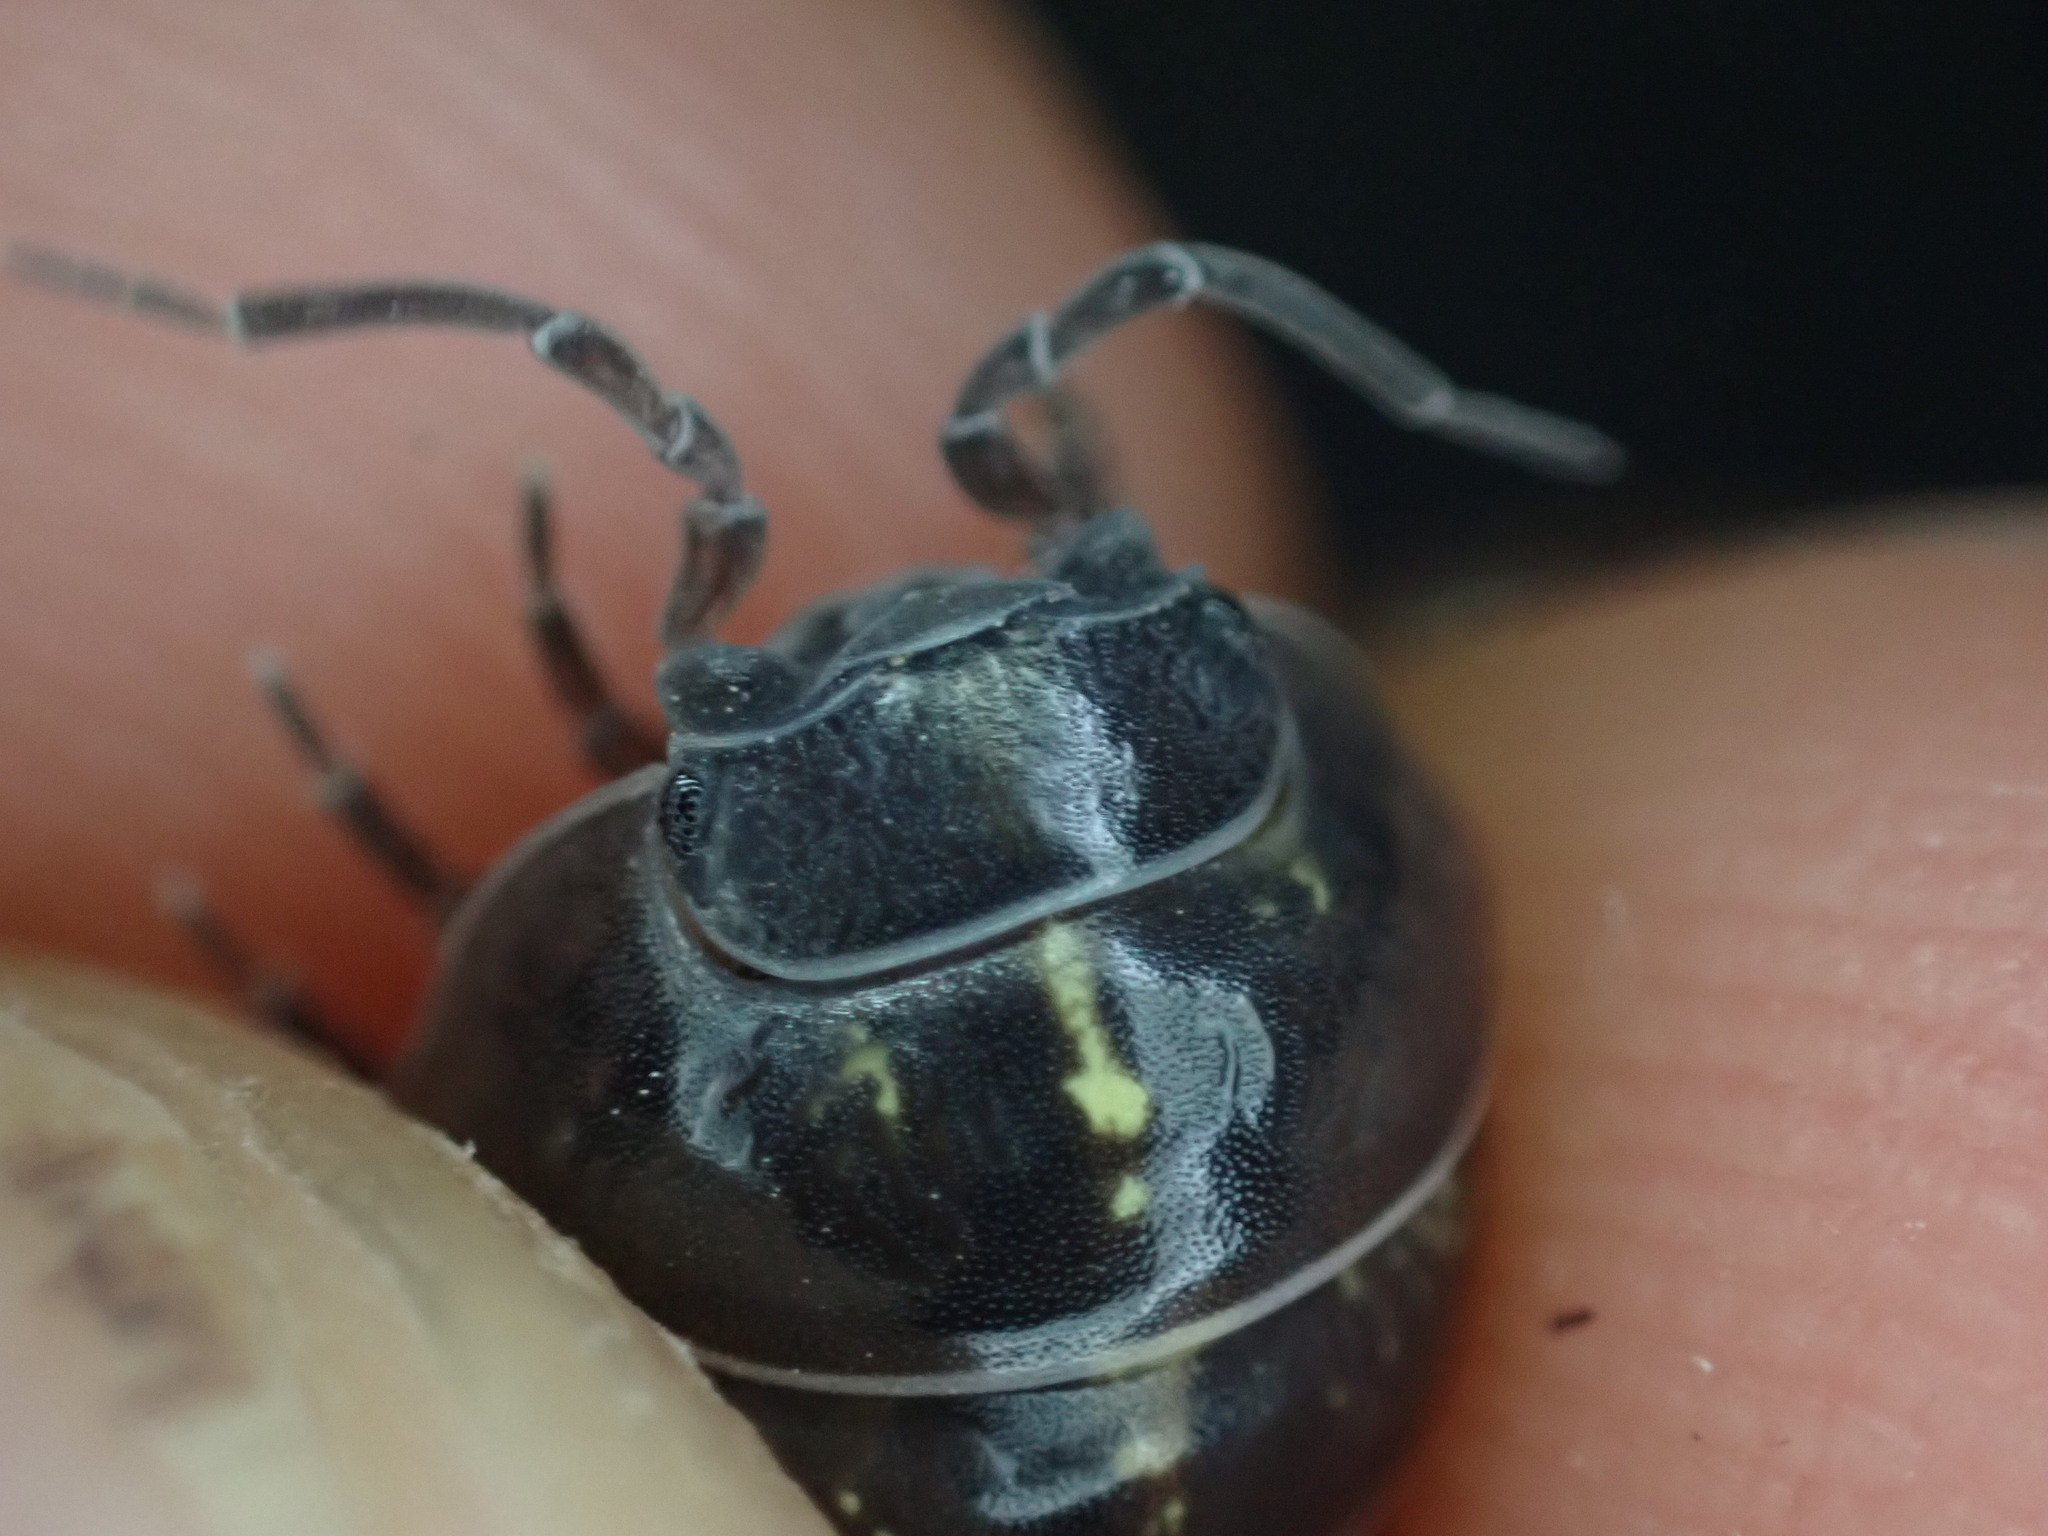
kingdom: Animalia
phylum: Arthropoda
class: Malacostraca
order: Isopoda
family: Armadillidiidae
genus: Armadillidium
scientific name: Armadillidium vulgare
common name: Common pill woodlouse
